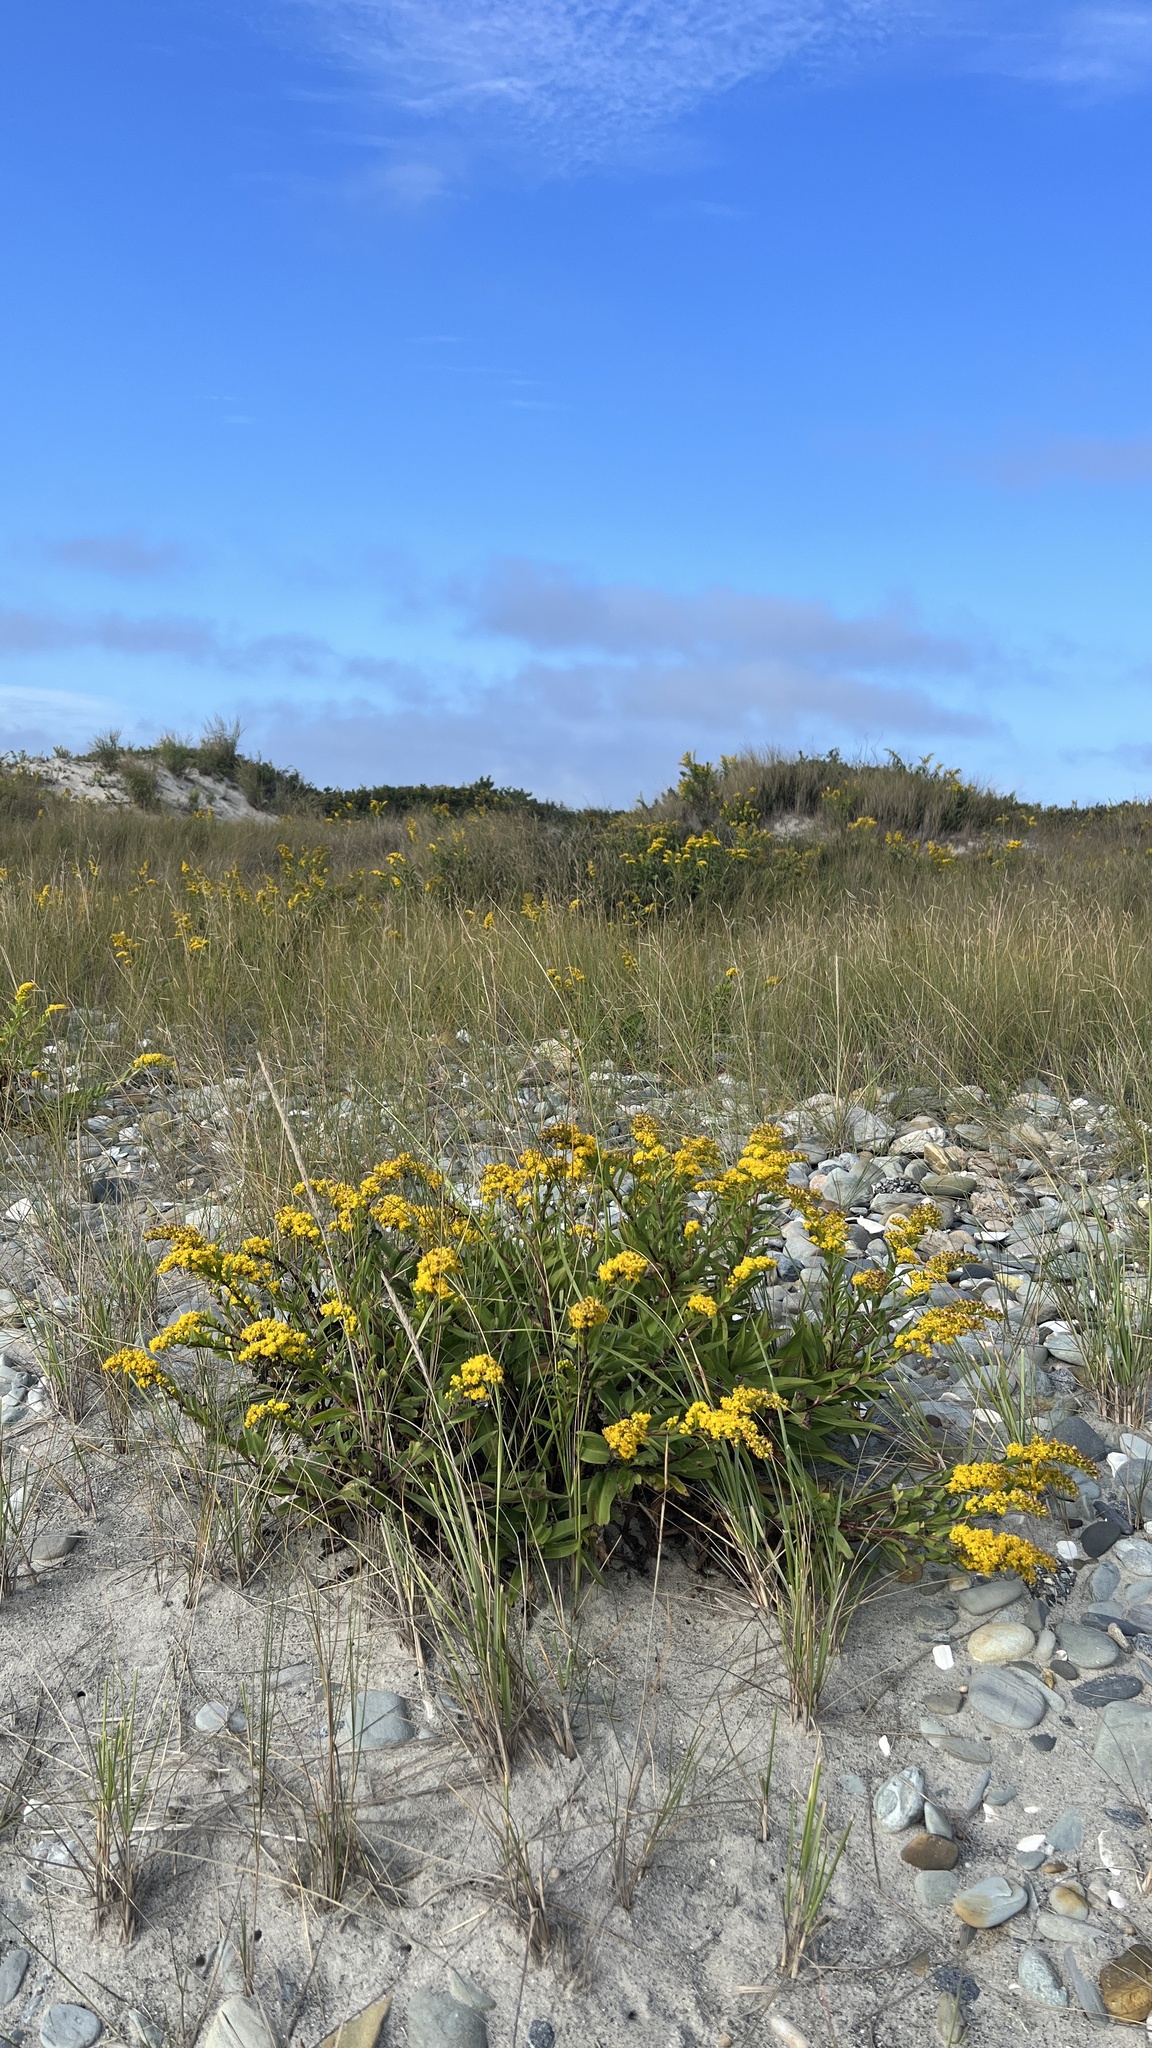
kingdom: Plantae
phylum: Tracheophyta
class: Magnoliopsida
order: Asterales
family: Asteraceae
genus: Solidago
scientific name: Solidago sempervirens
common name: Salt-marsh goldenrod
